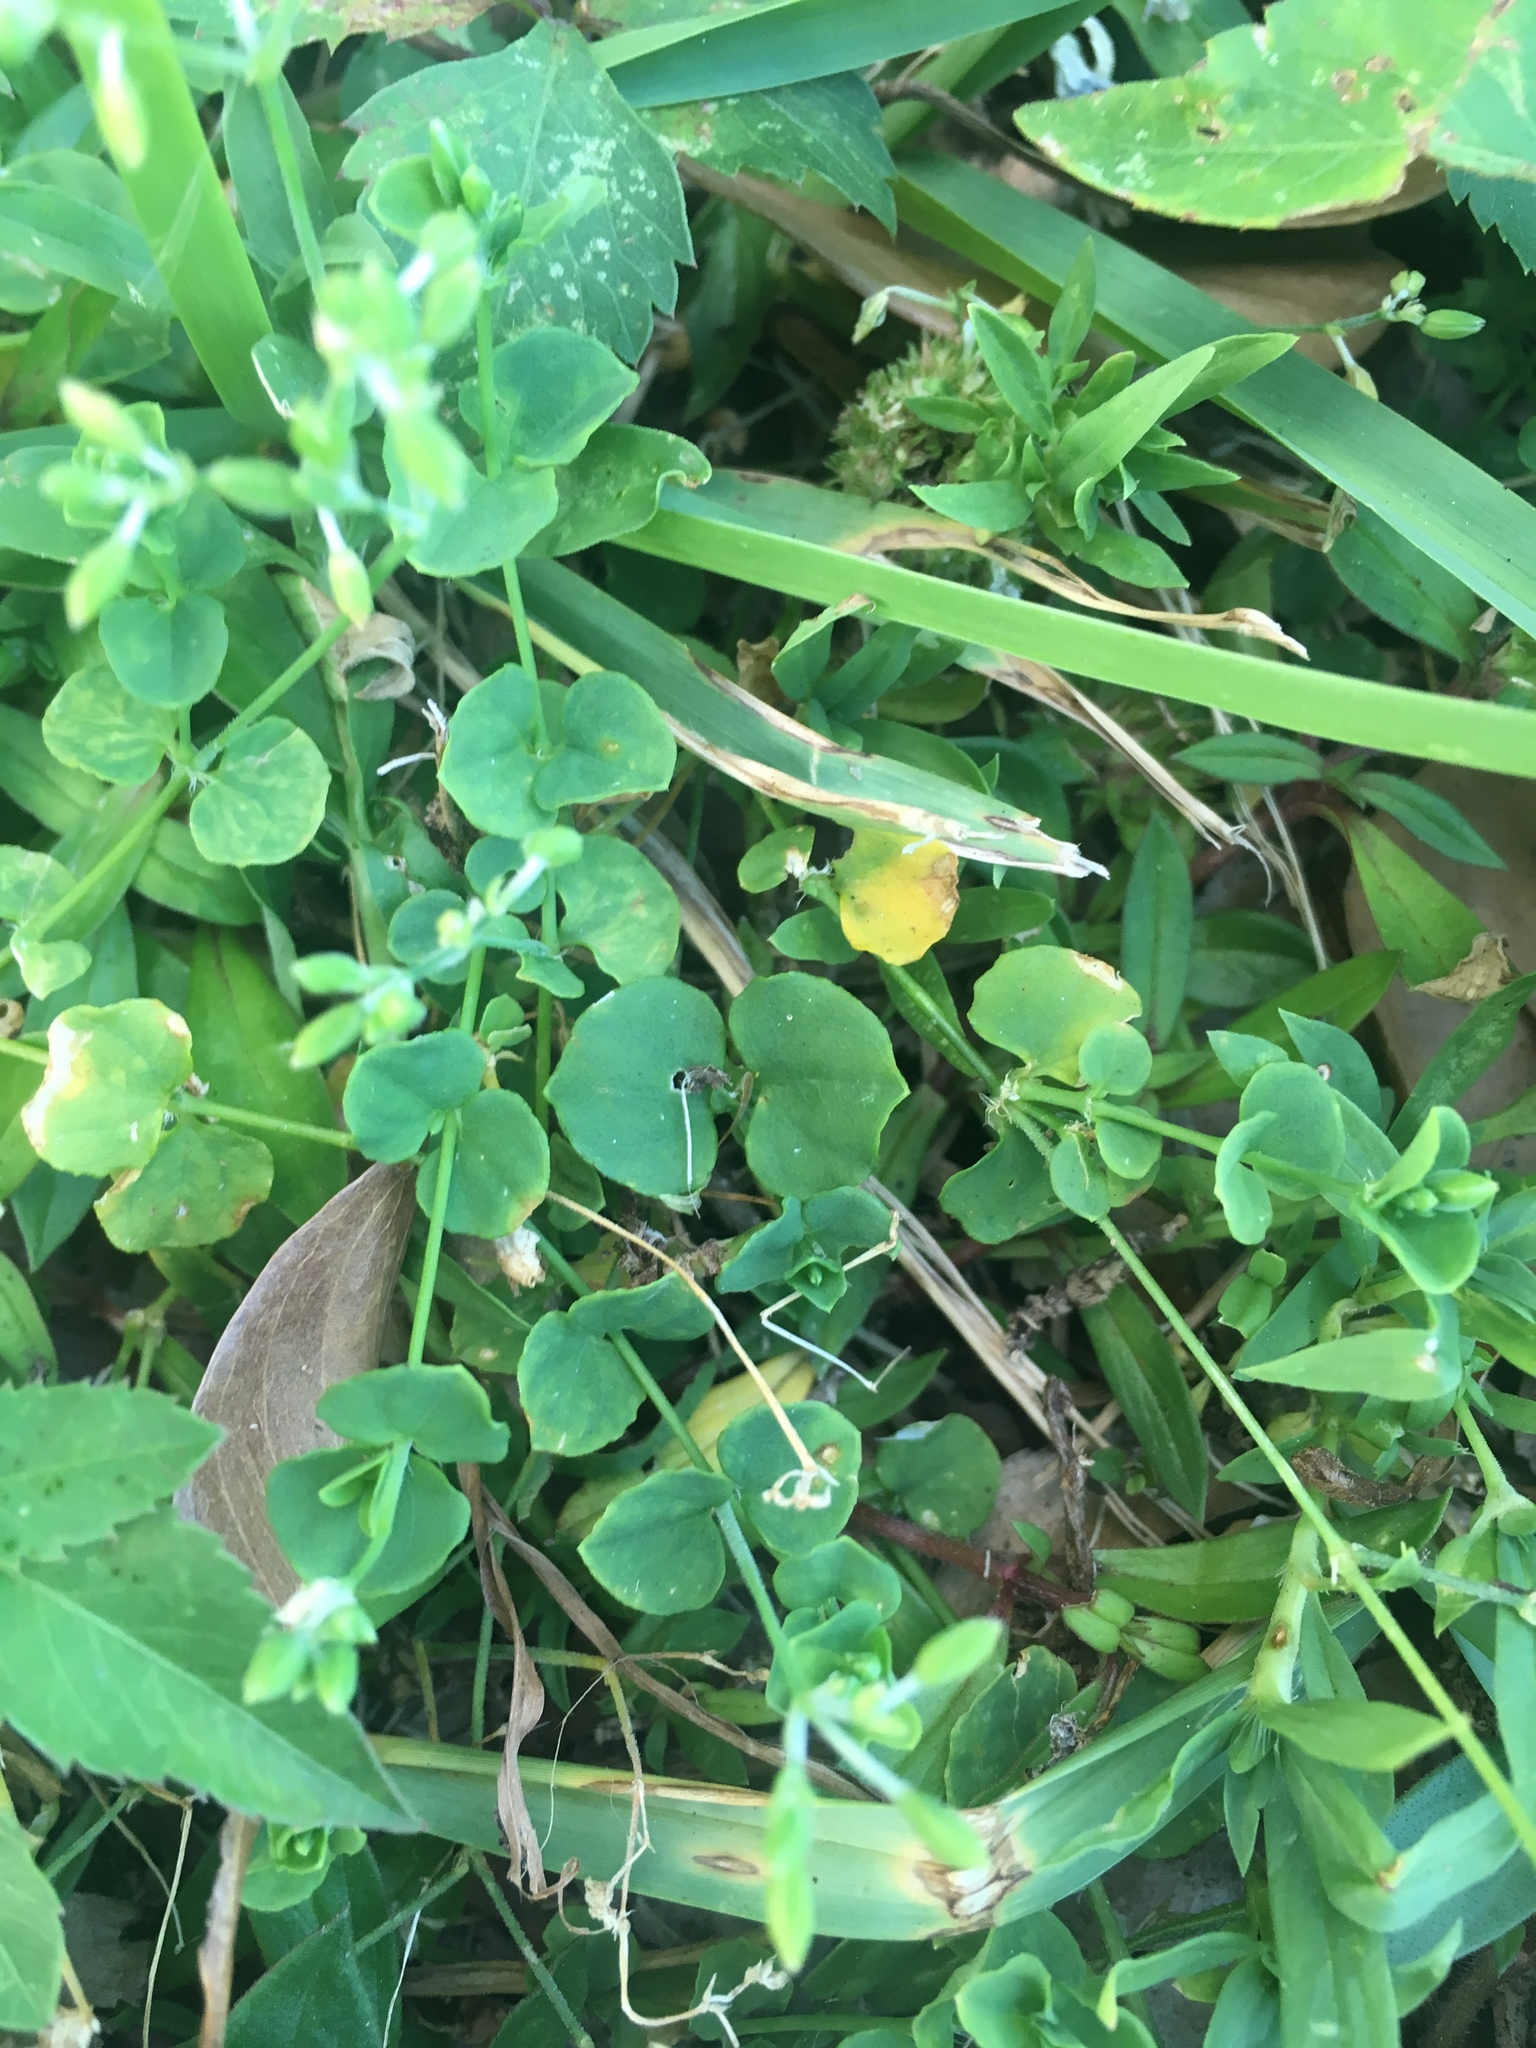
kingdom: Plantae
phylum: Tracheophyta
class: Magnoliopsida
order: Caryophyllales
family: Caryophyllaceae
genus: Drymaria
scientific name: Drymaria cordata
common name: Whitesnow
